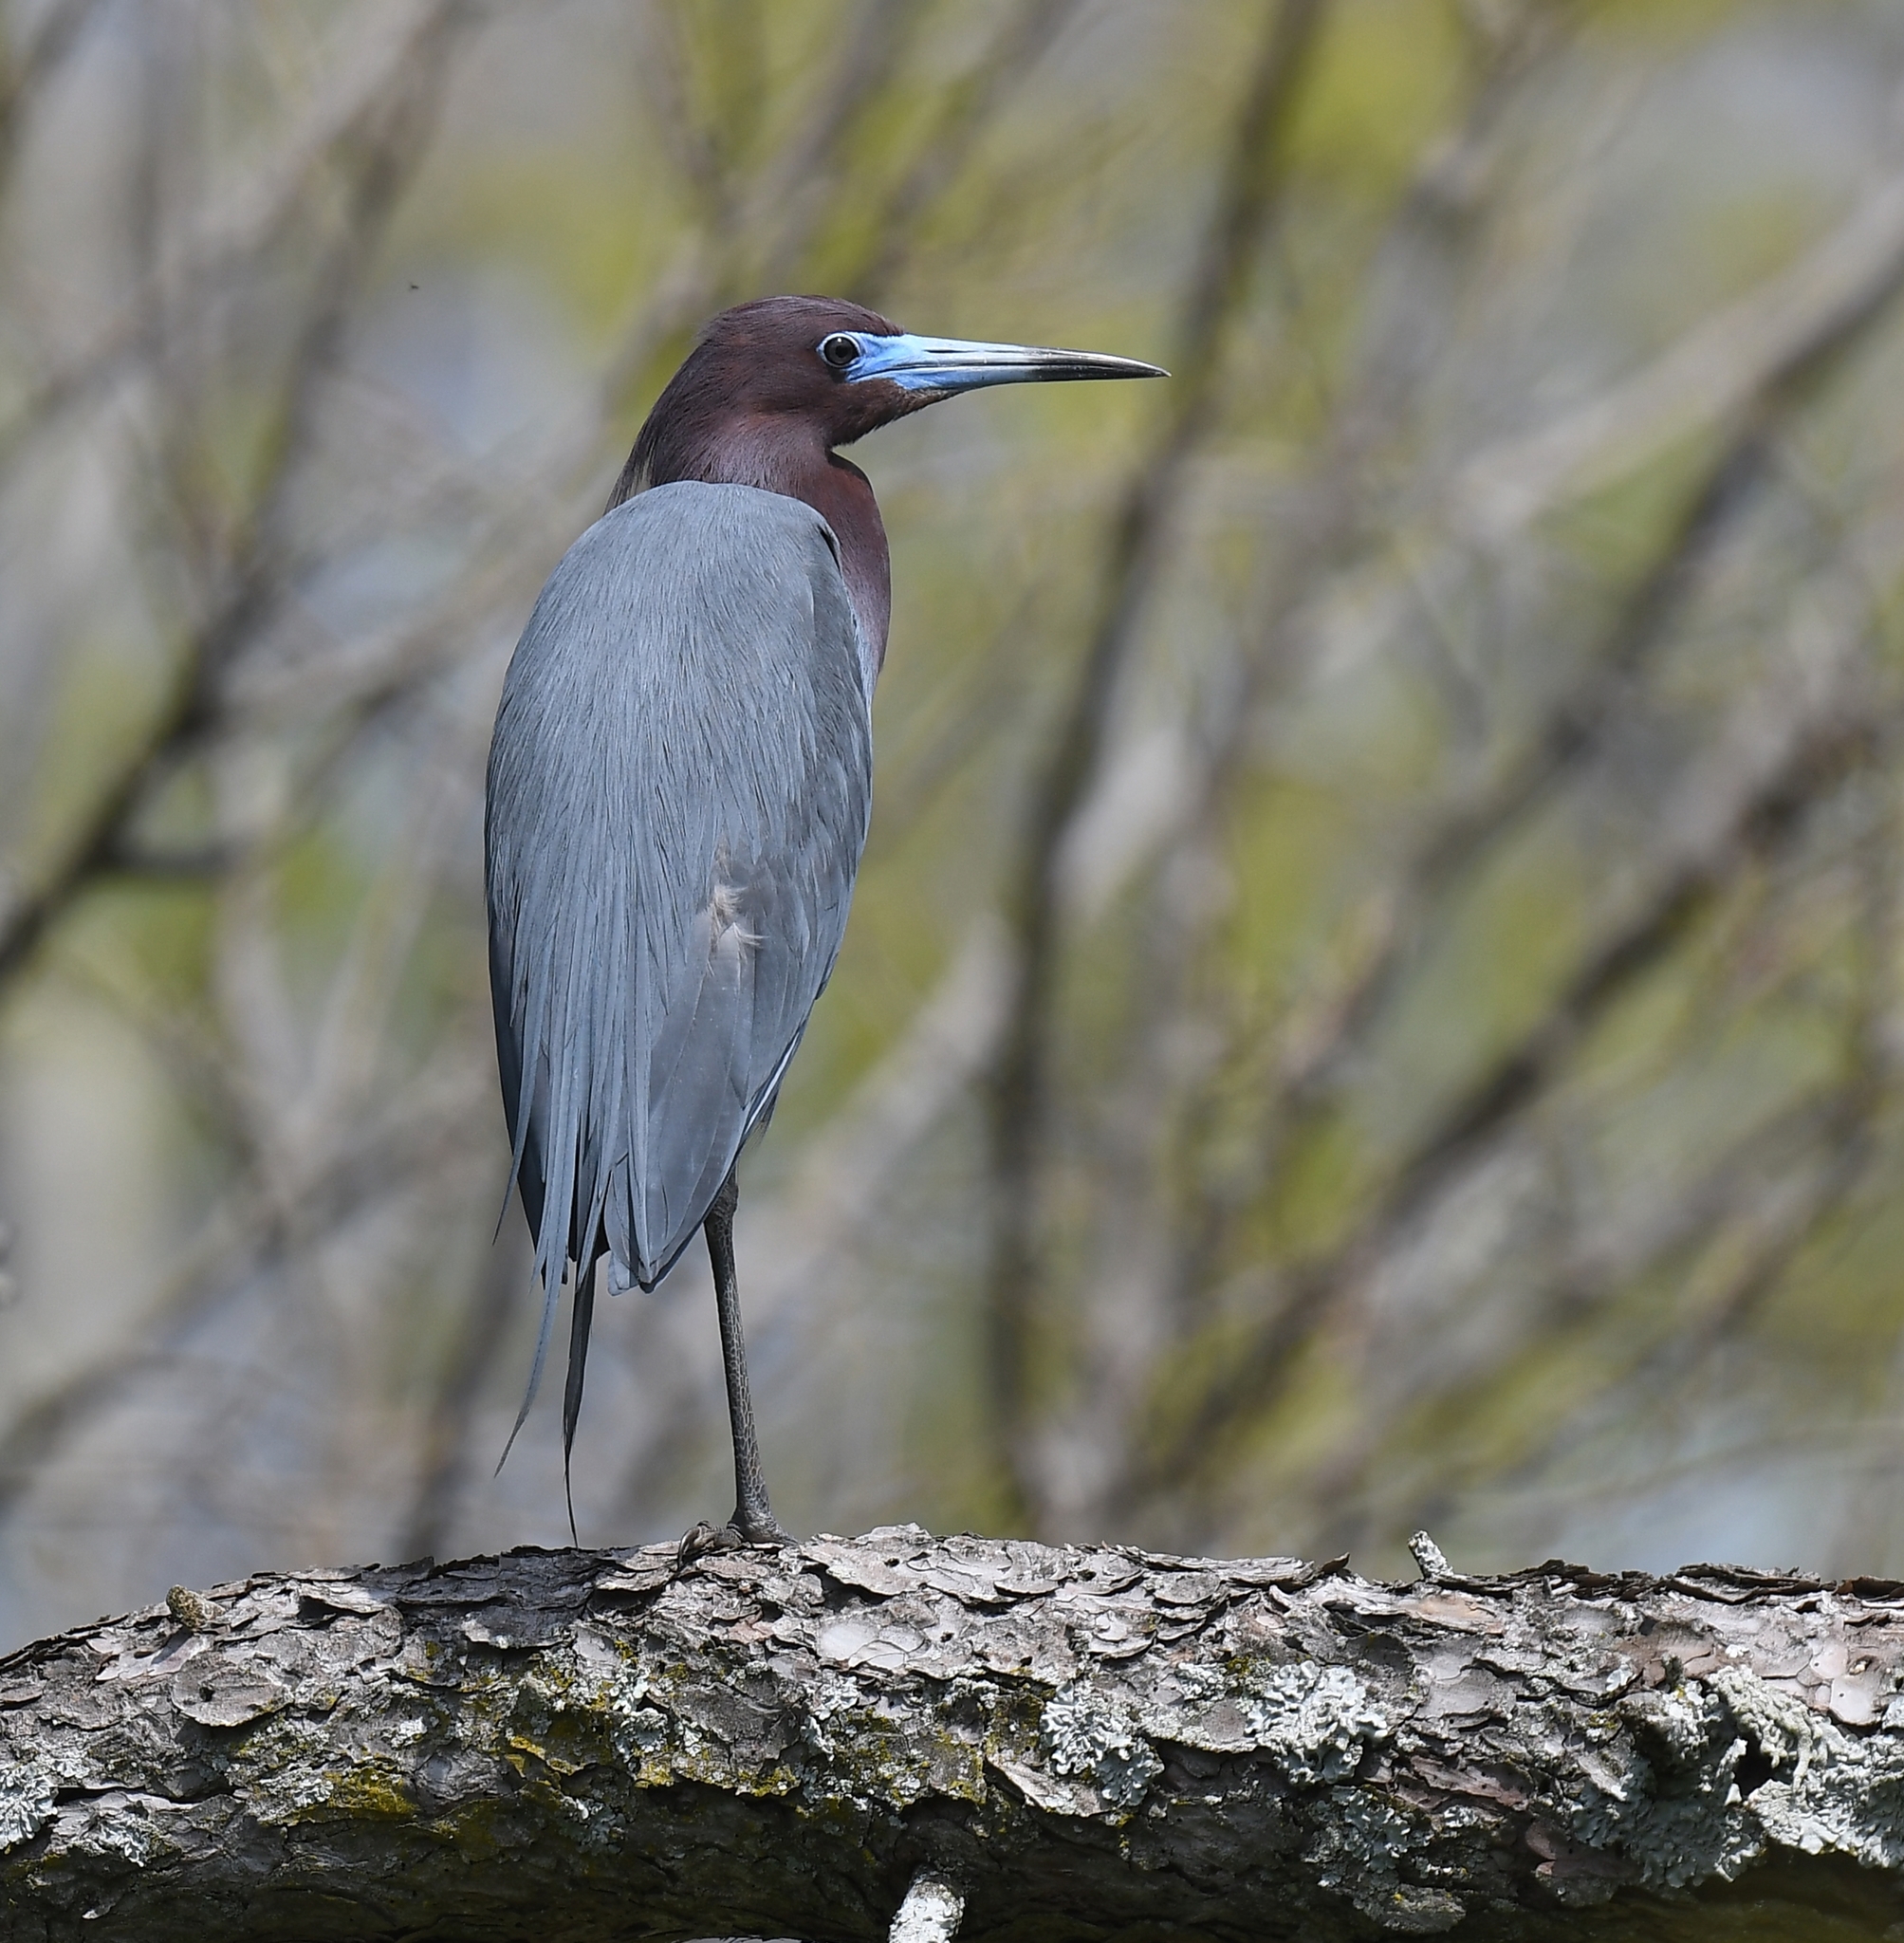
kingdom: Animalia
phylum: Chordata
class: Aves
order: Pelecaniformes
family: Ardeidae
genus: Egretta
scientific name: Egretta caerulea
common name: Little blue heron
